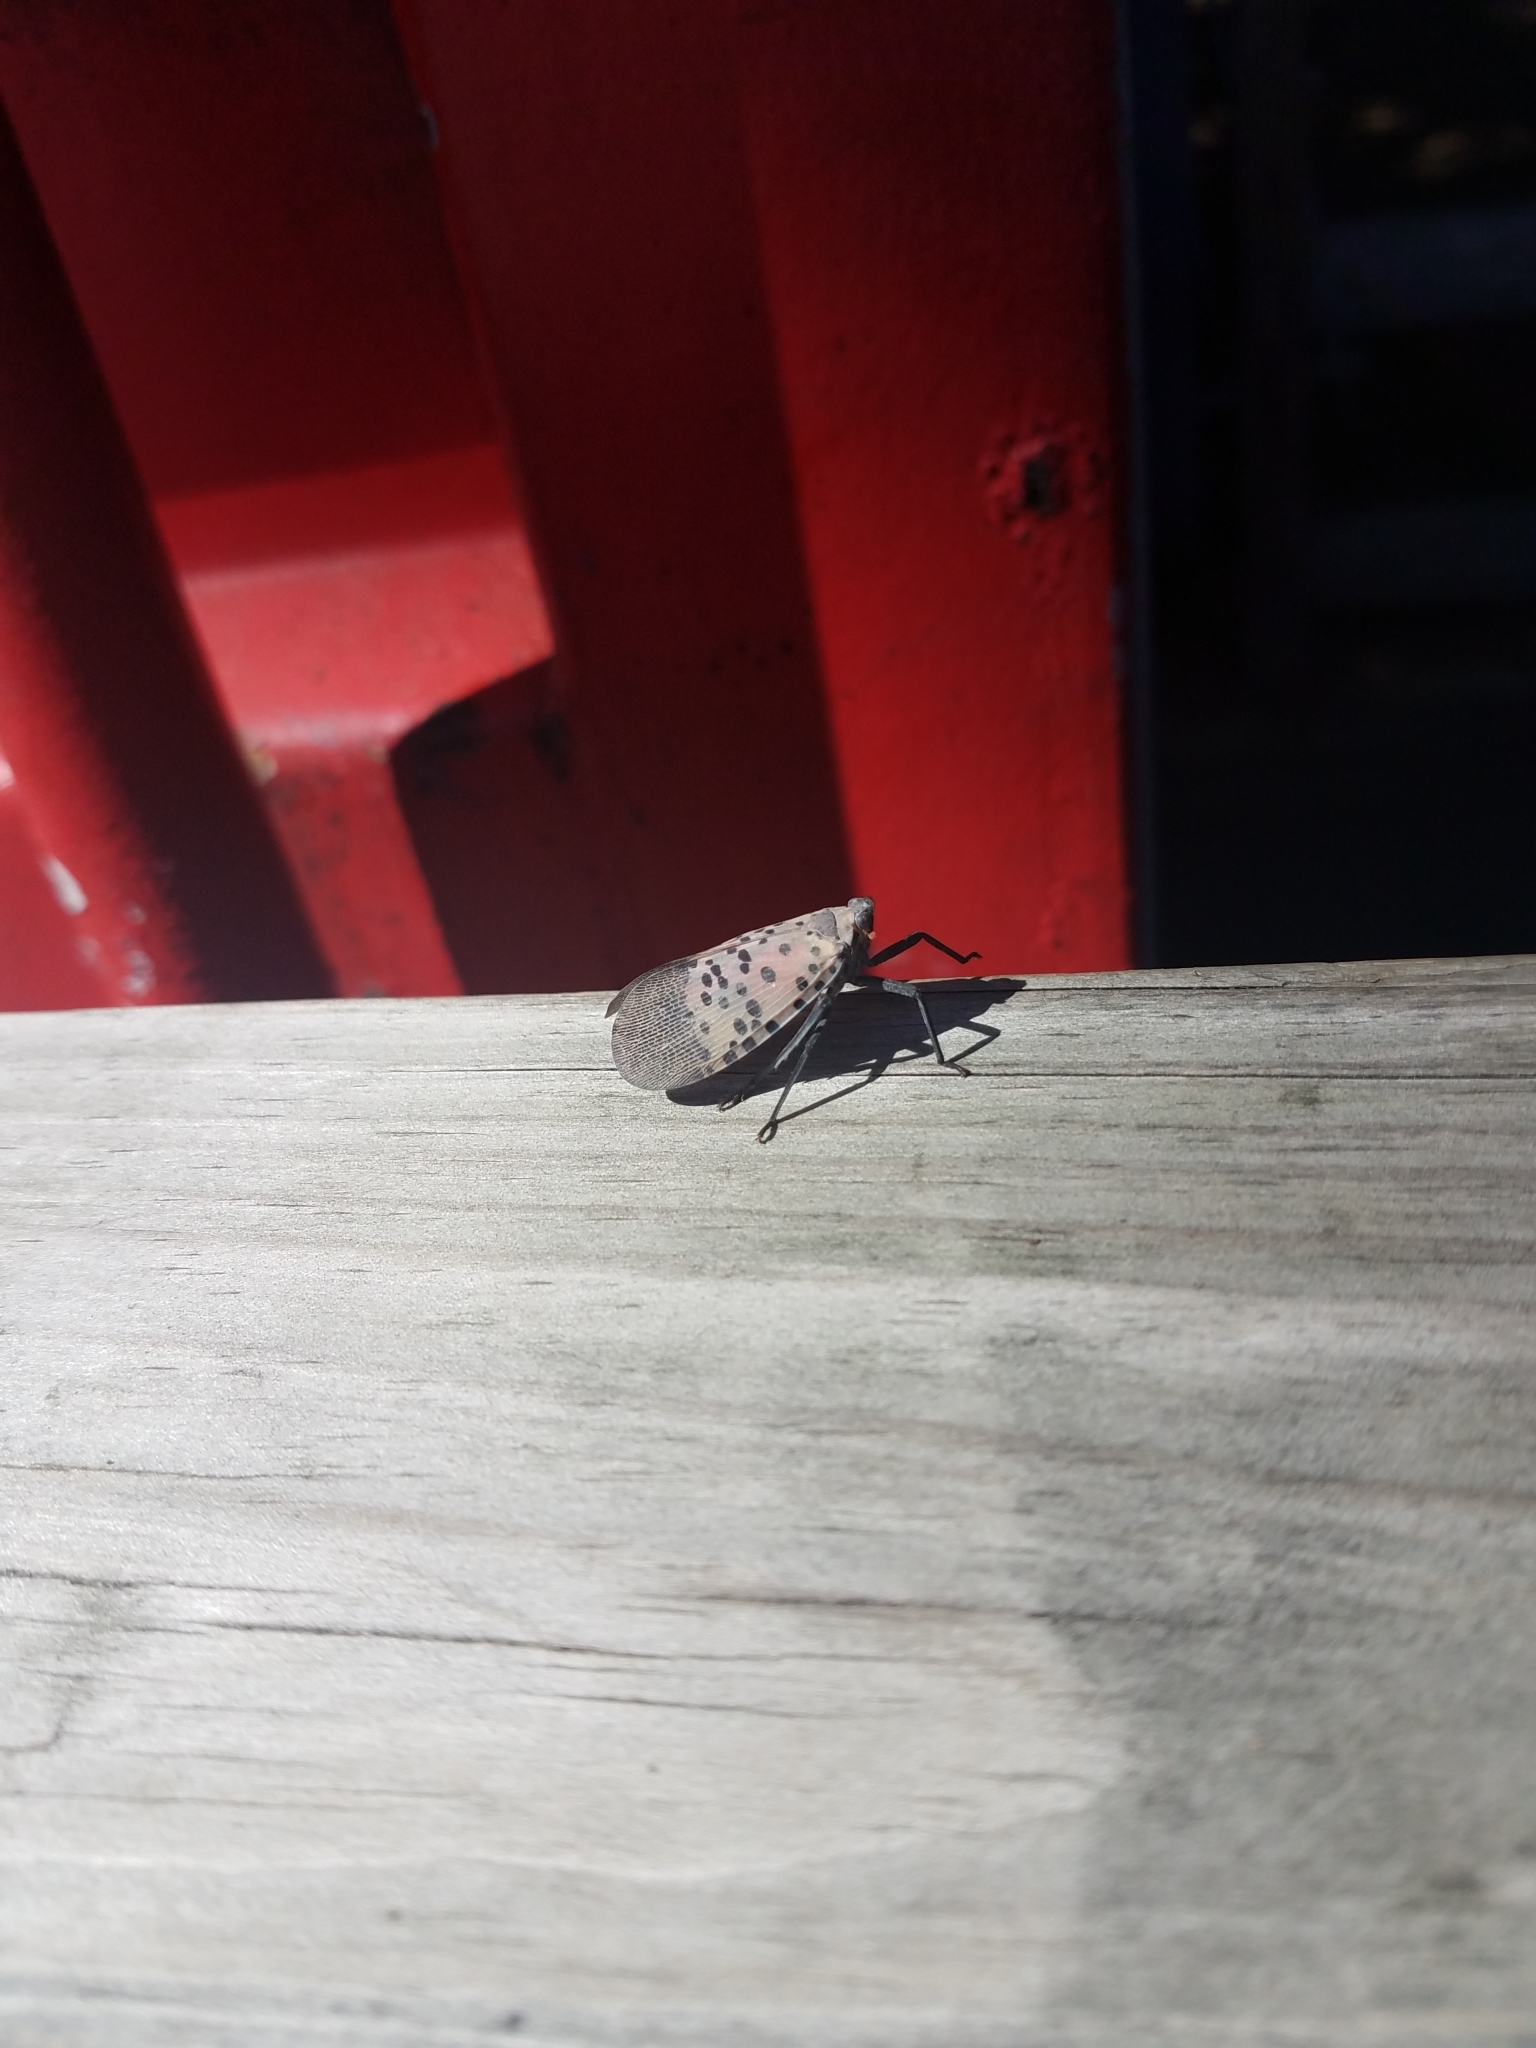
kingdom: Animalia
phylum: Arthropoda
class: Insecta
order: Hemiptera
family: Fulgoridae
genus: Lycorma
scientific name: Lycorma delicatula
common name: Spotted lanternfly
